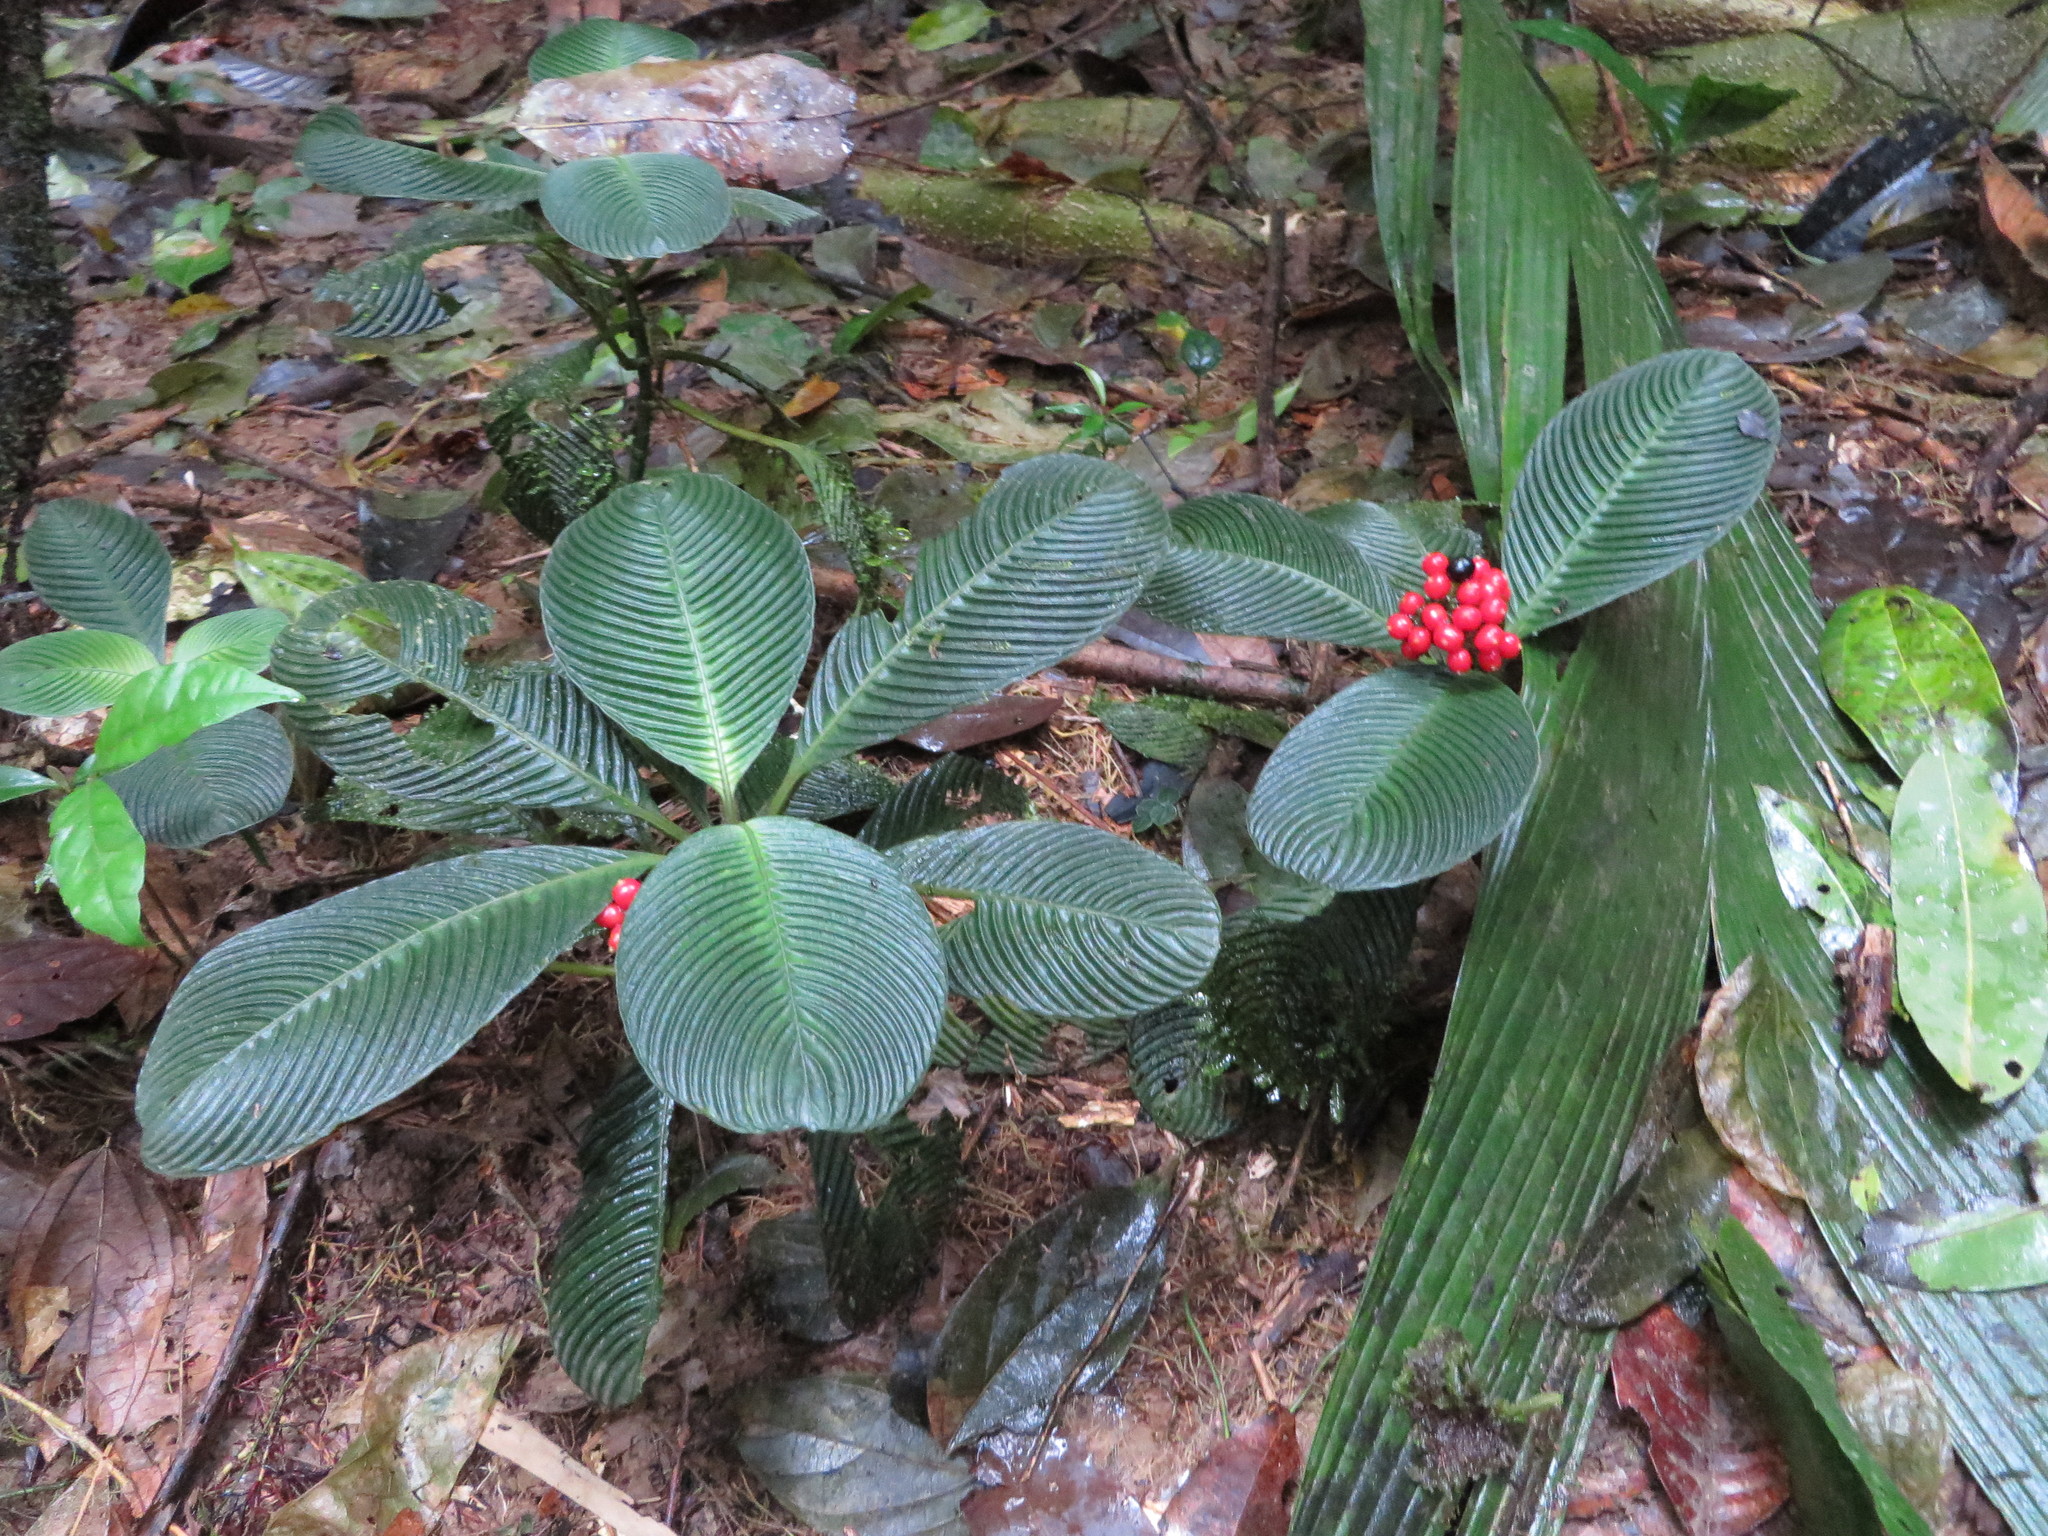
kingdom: Plantae
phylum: Tracheophyta
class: Magnoliopsida
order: Gentianales
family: Rubiaceae
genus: Notopleura
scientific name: Notopleura polyphlebia
